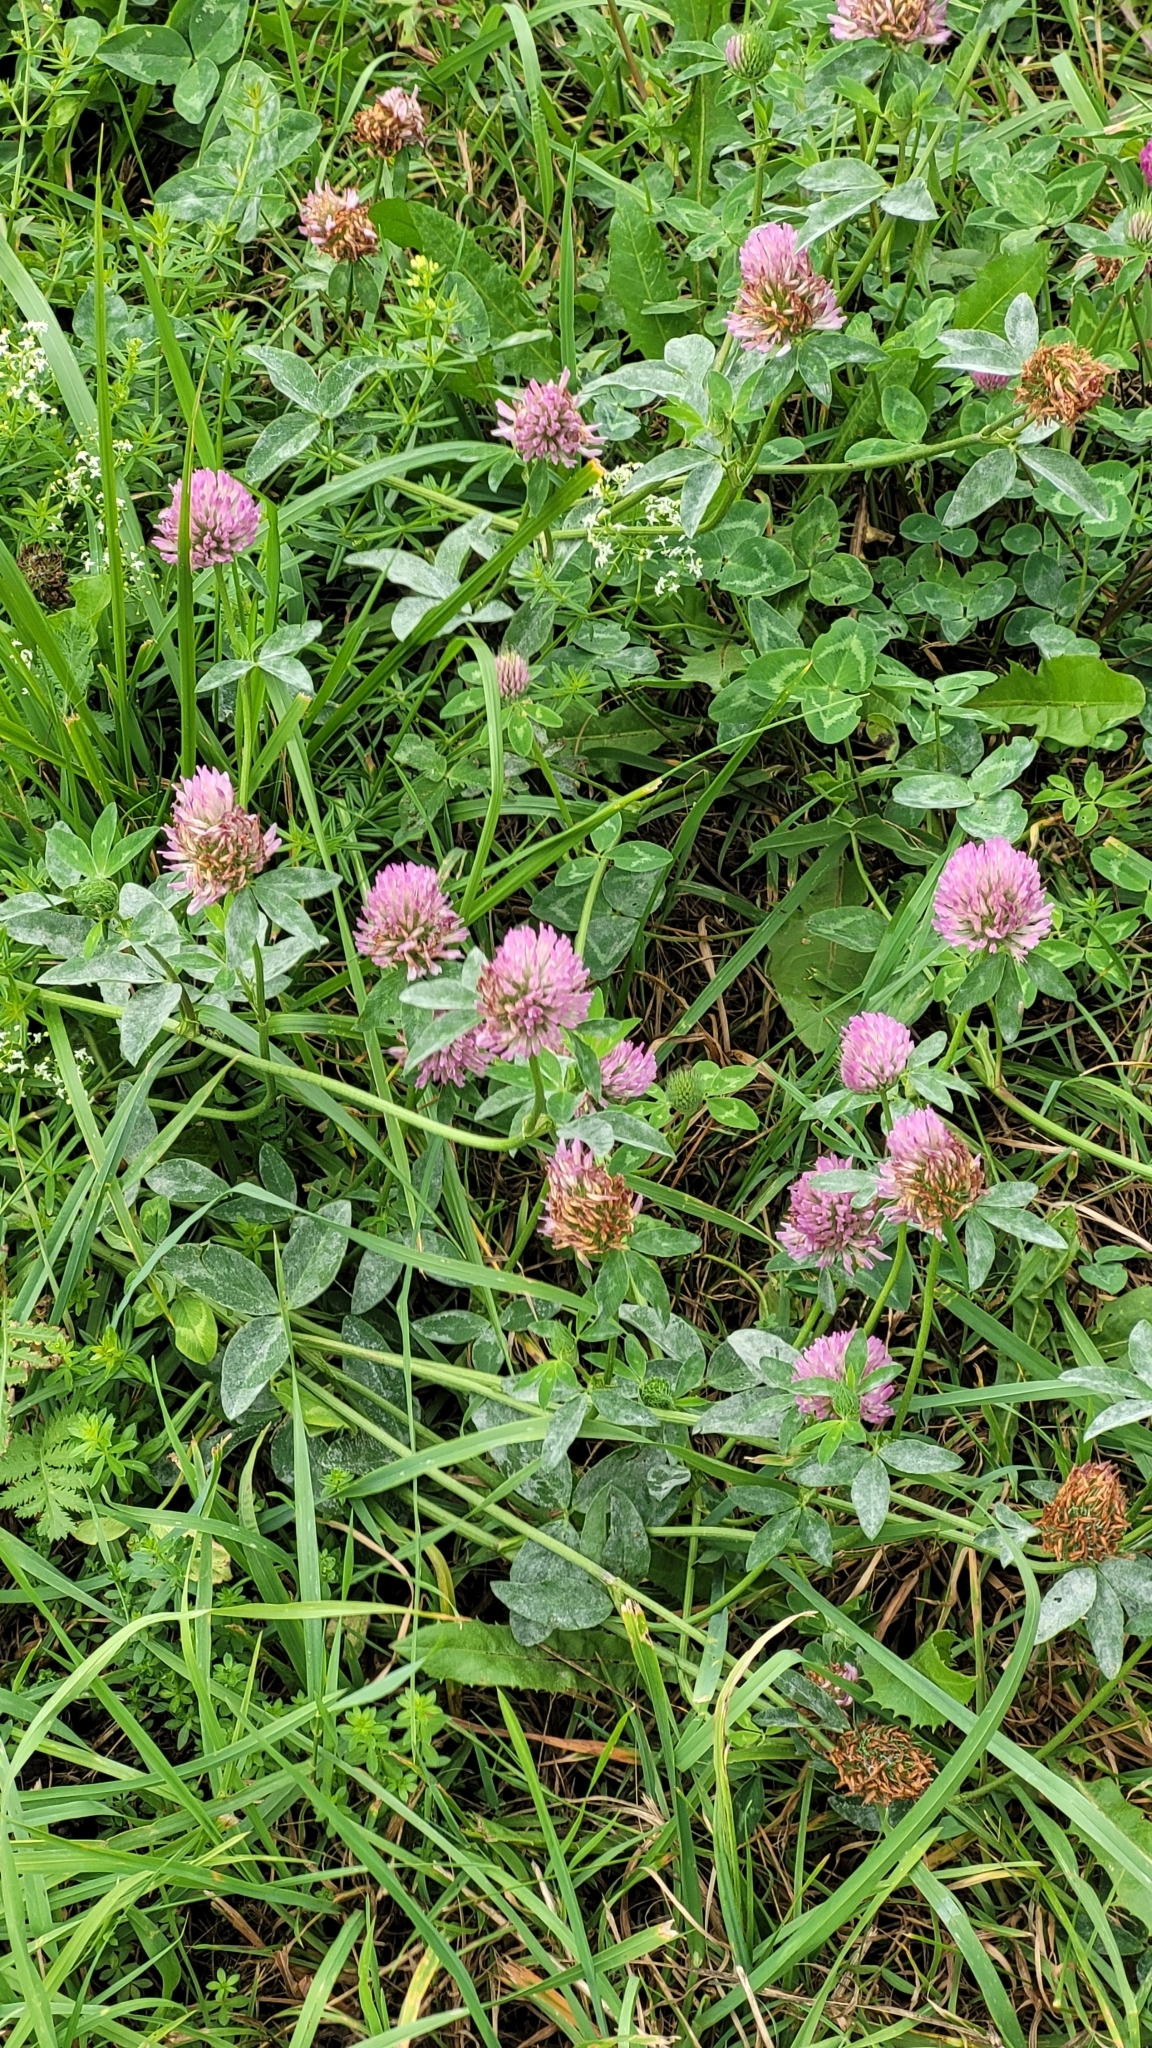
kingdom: Plantae
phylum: Tracheophyta
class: Magnoliopsida
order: Fabales
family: Fabaceae
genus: Trifolium
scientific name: Trifolium pratense
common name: Red clover
